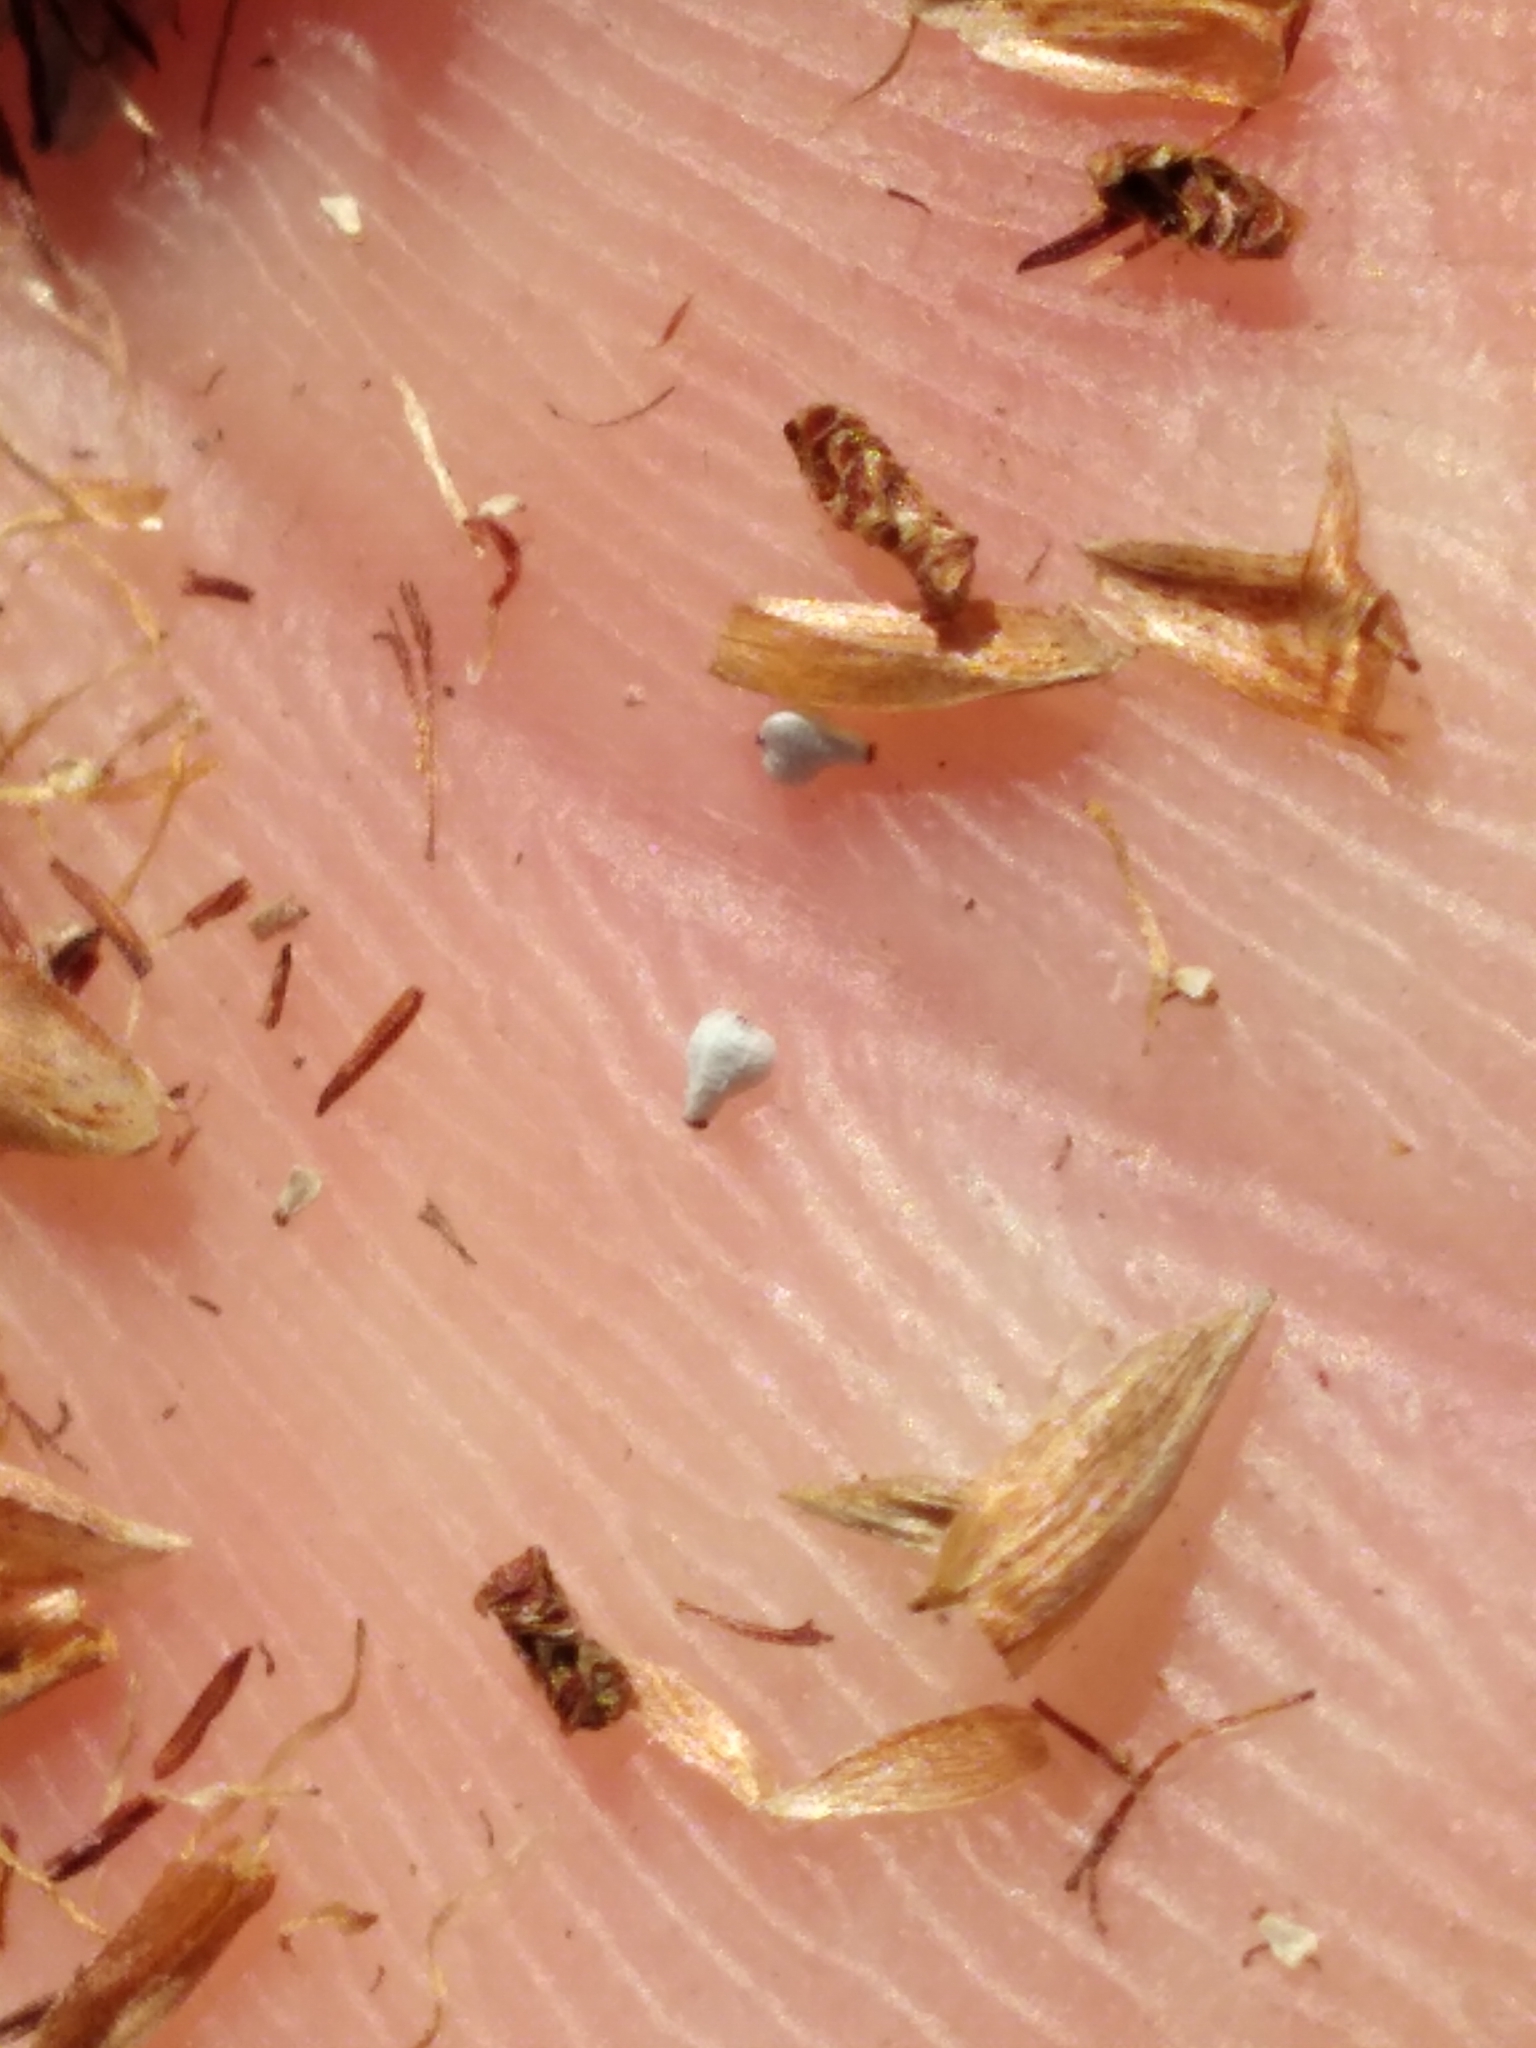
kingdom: Plantae
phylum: Tracheophyta
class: Liliopsida
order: Poales
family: Cyperaceae
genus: Bulbostylis
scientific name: Bulbostylis warei
